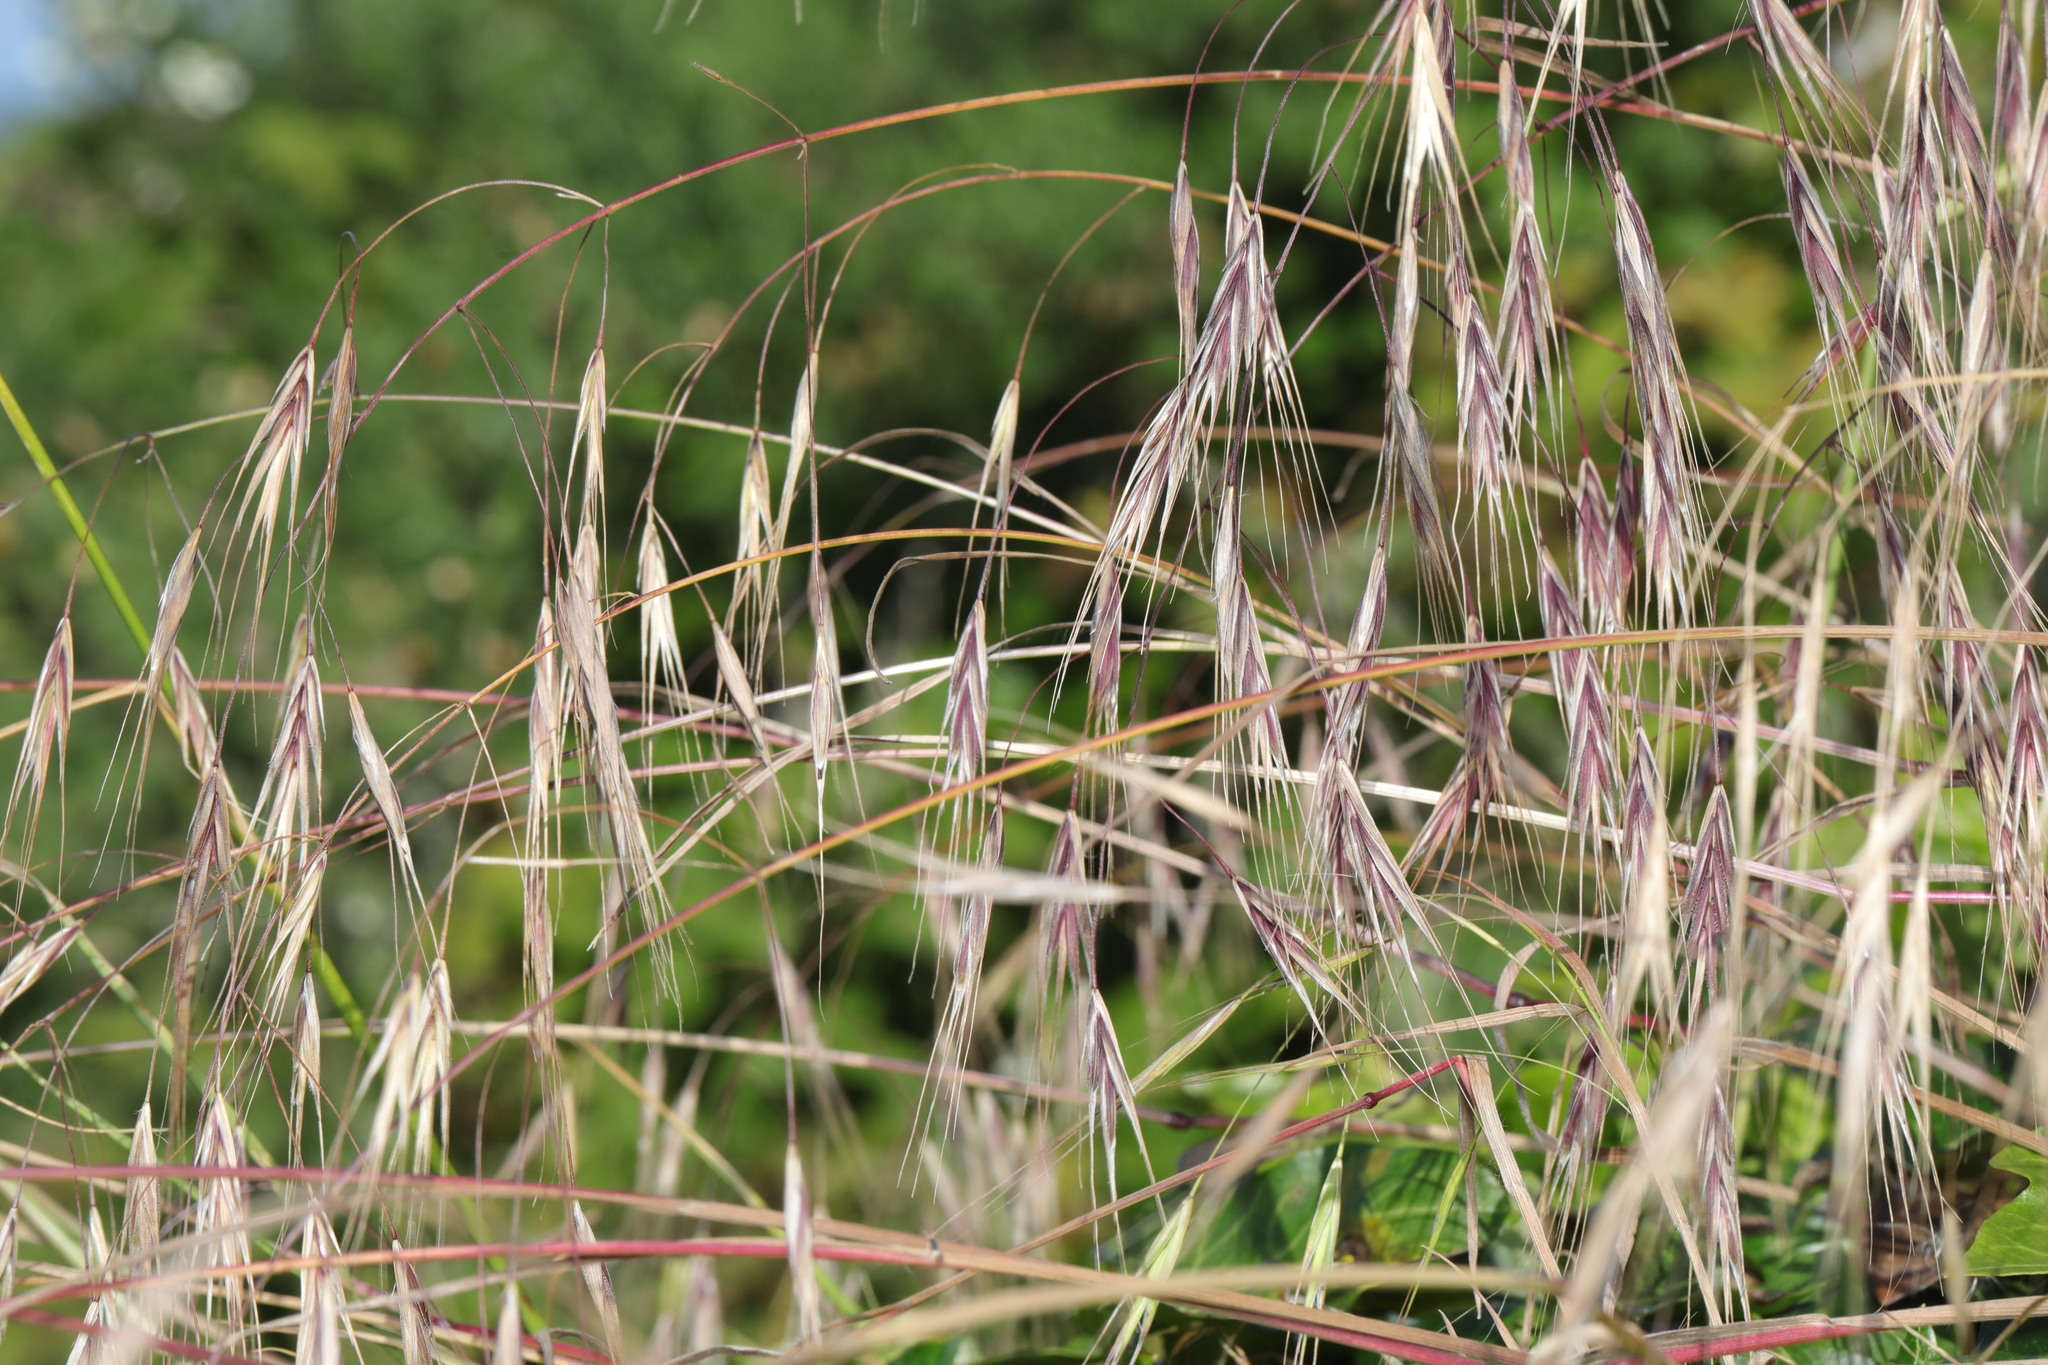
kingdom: Plantae
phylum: Tracheophyta
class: Liliopsida
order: Poales
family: Poaceae
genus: Bromus
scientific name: Bromus sterilis
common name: Poverty brome
